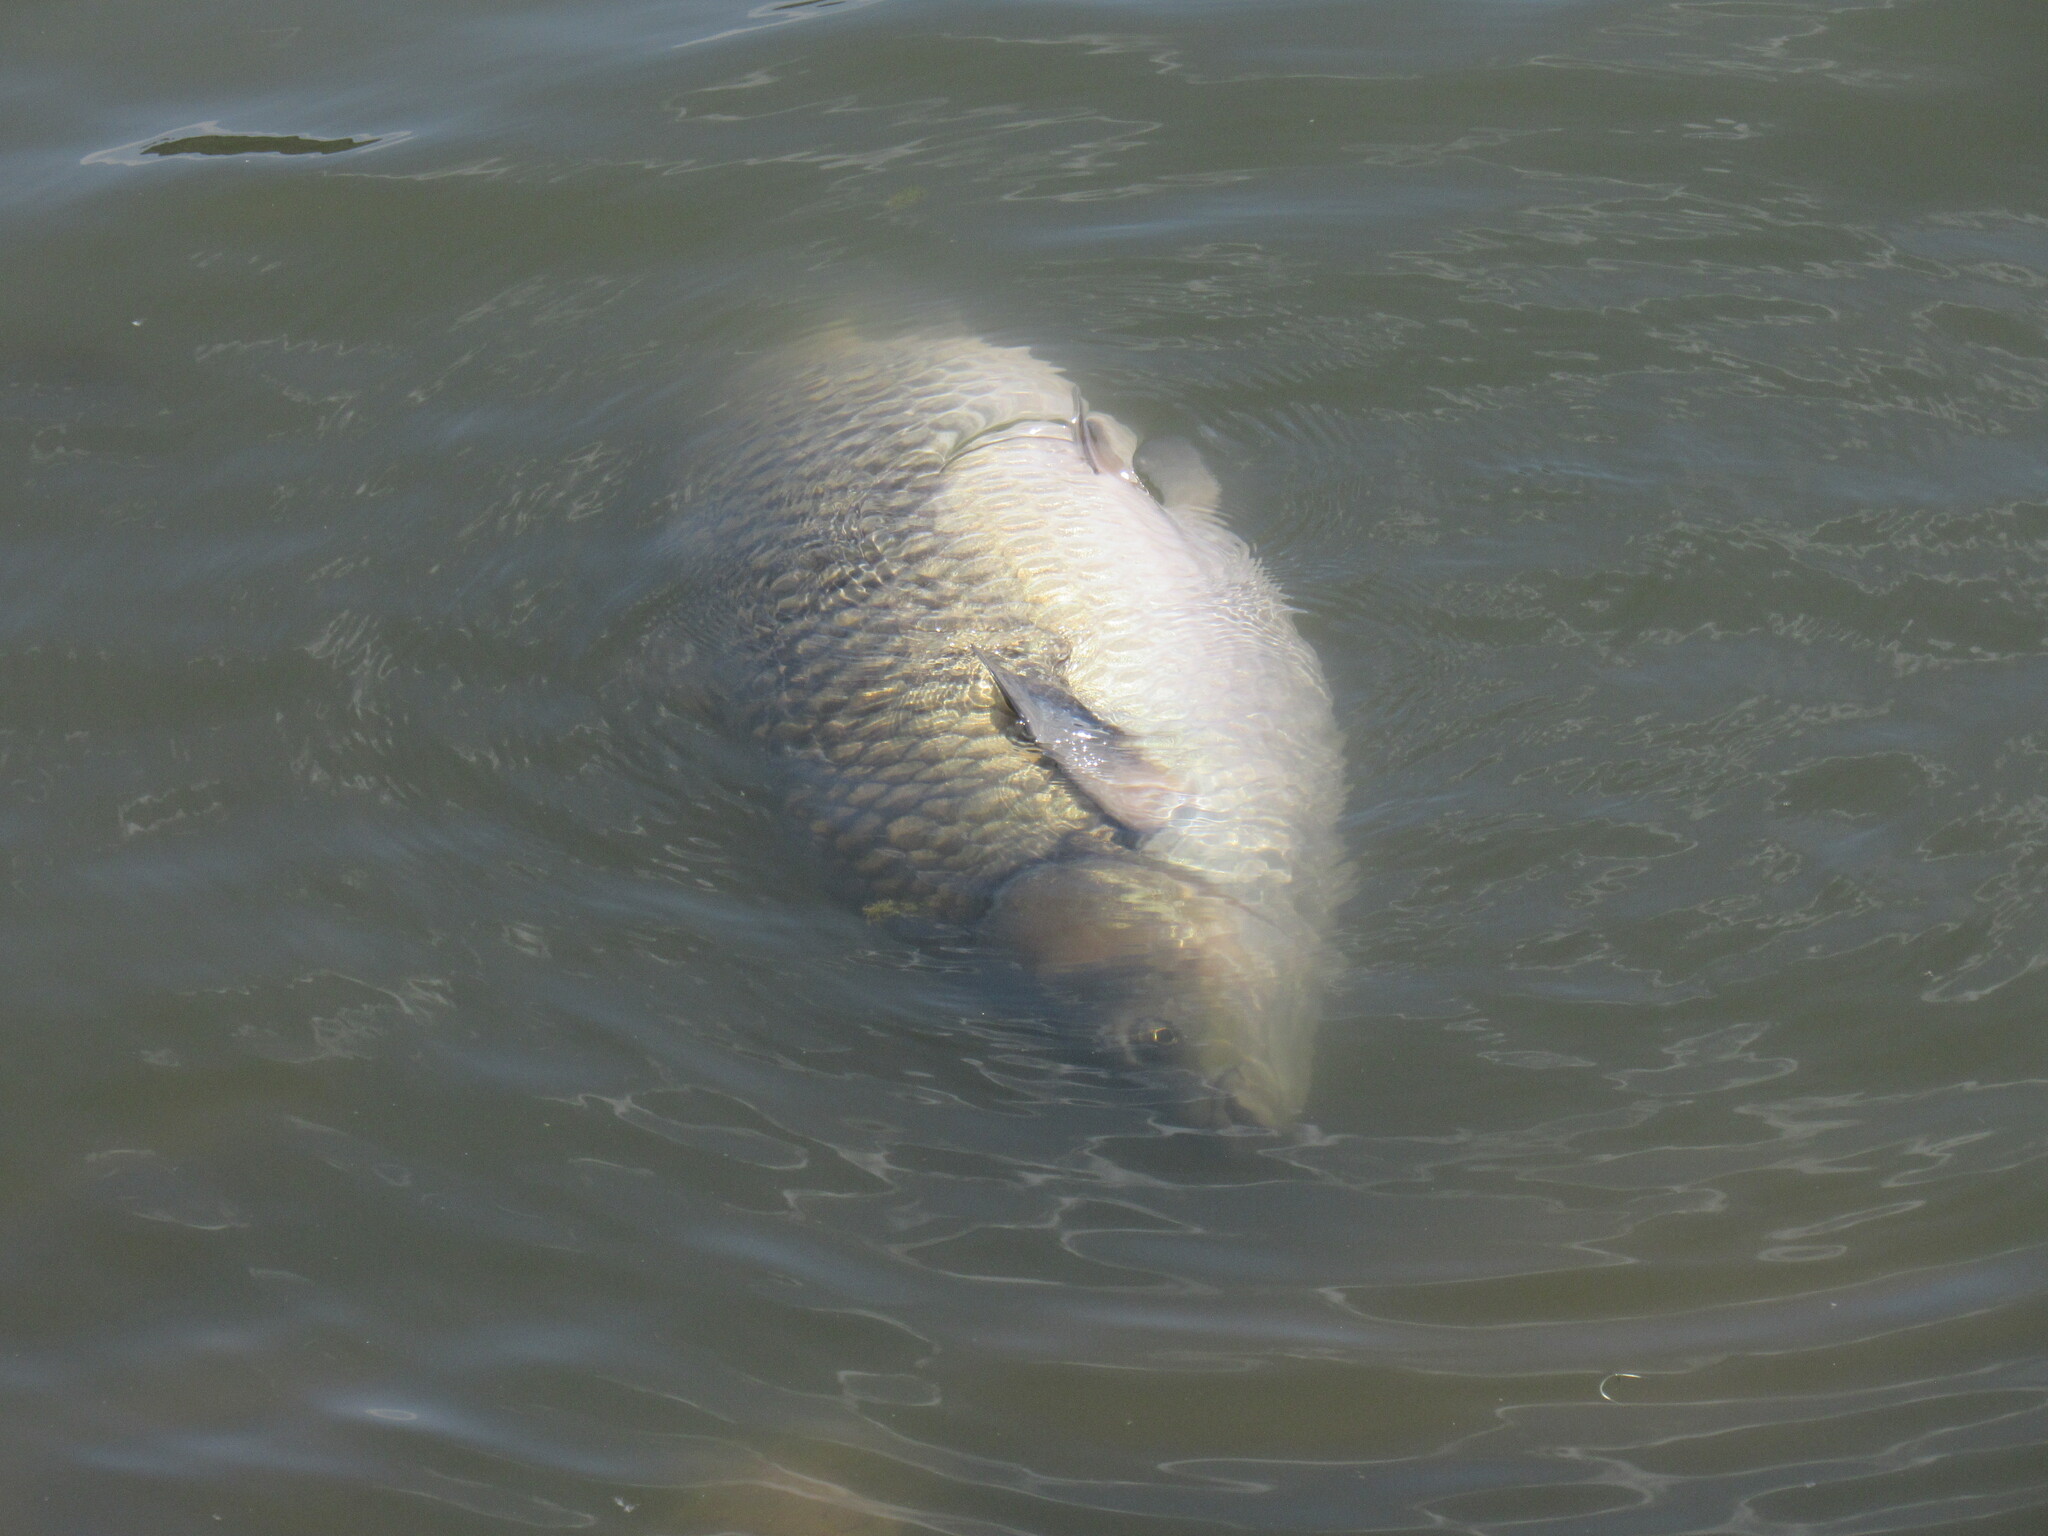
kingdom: Animalia
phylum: Chordata
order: Cypriniformes
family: Cyprinidae
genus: Ctenopharyngodon
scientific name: Ctenopharyngodon idella
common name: Grass carp
